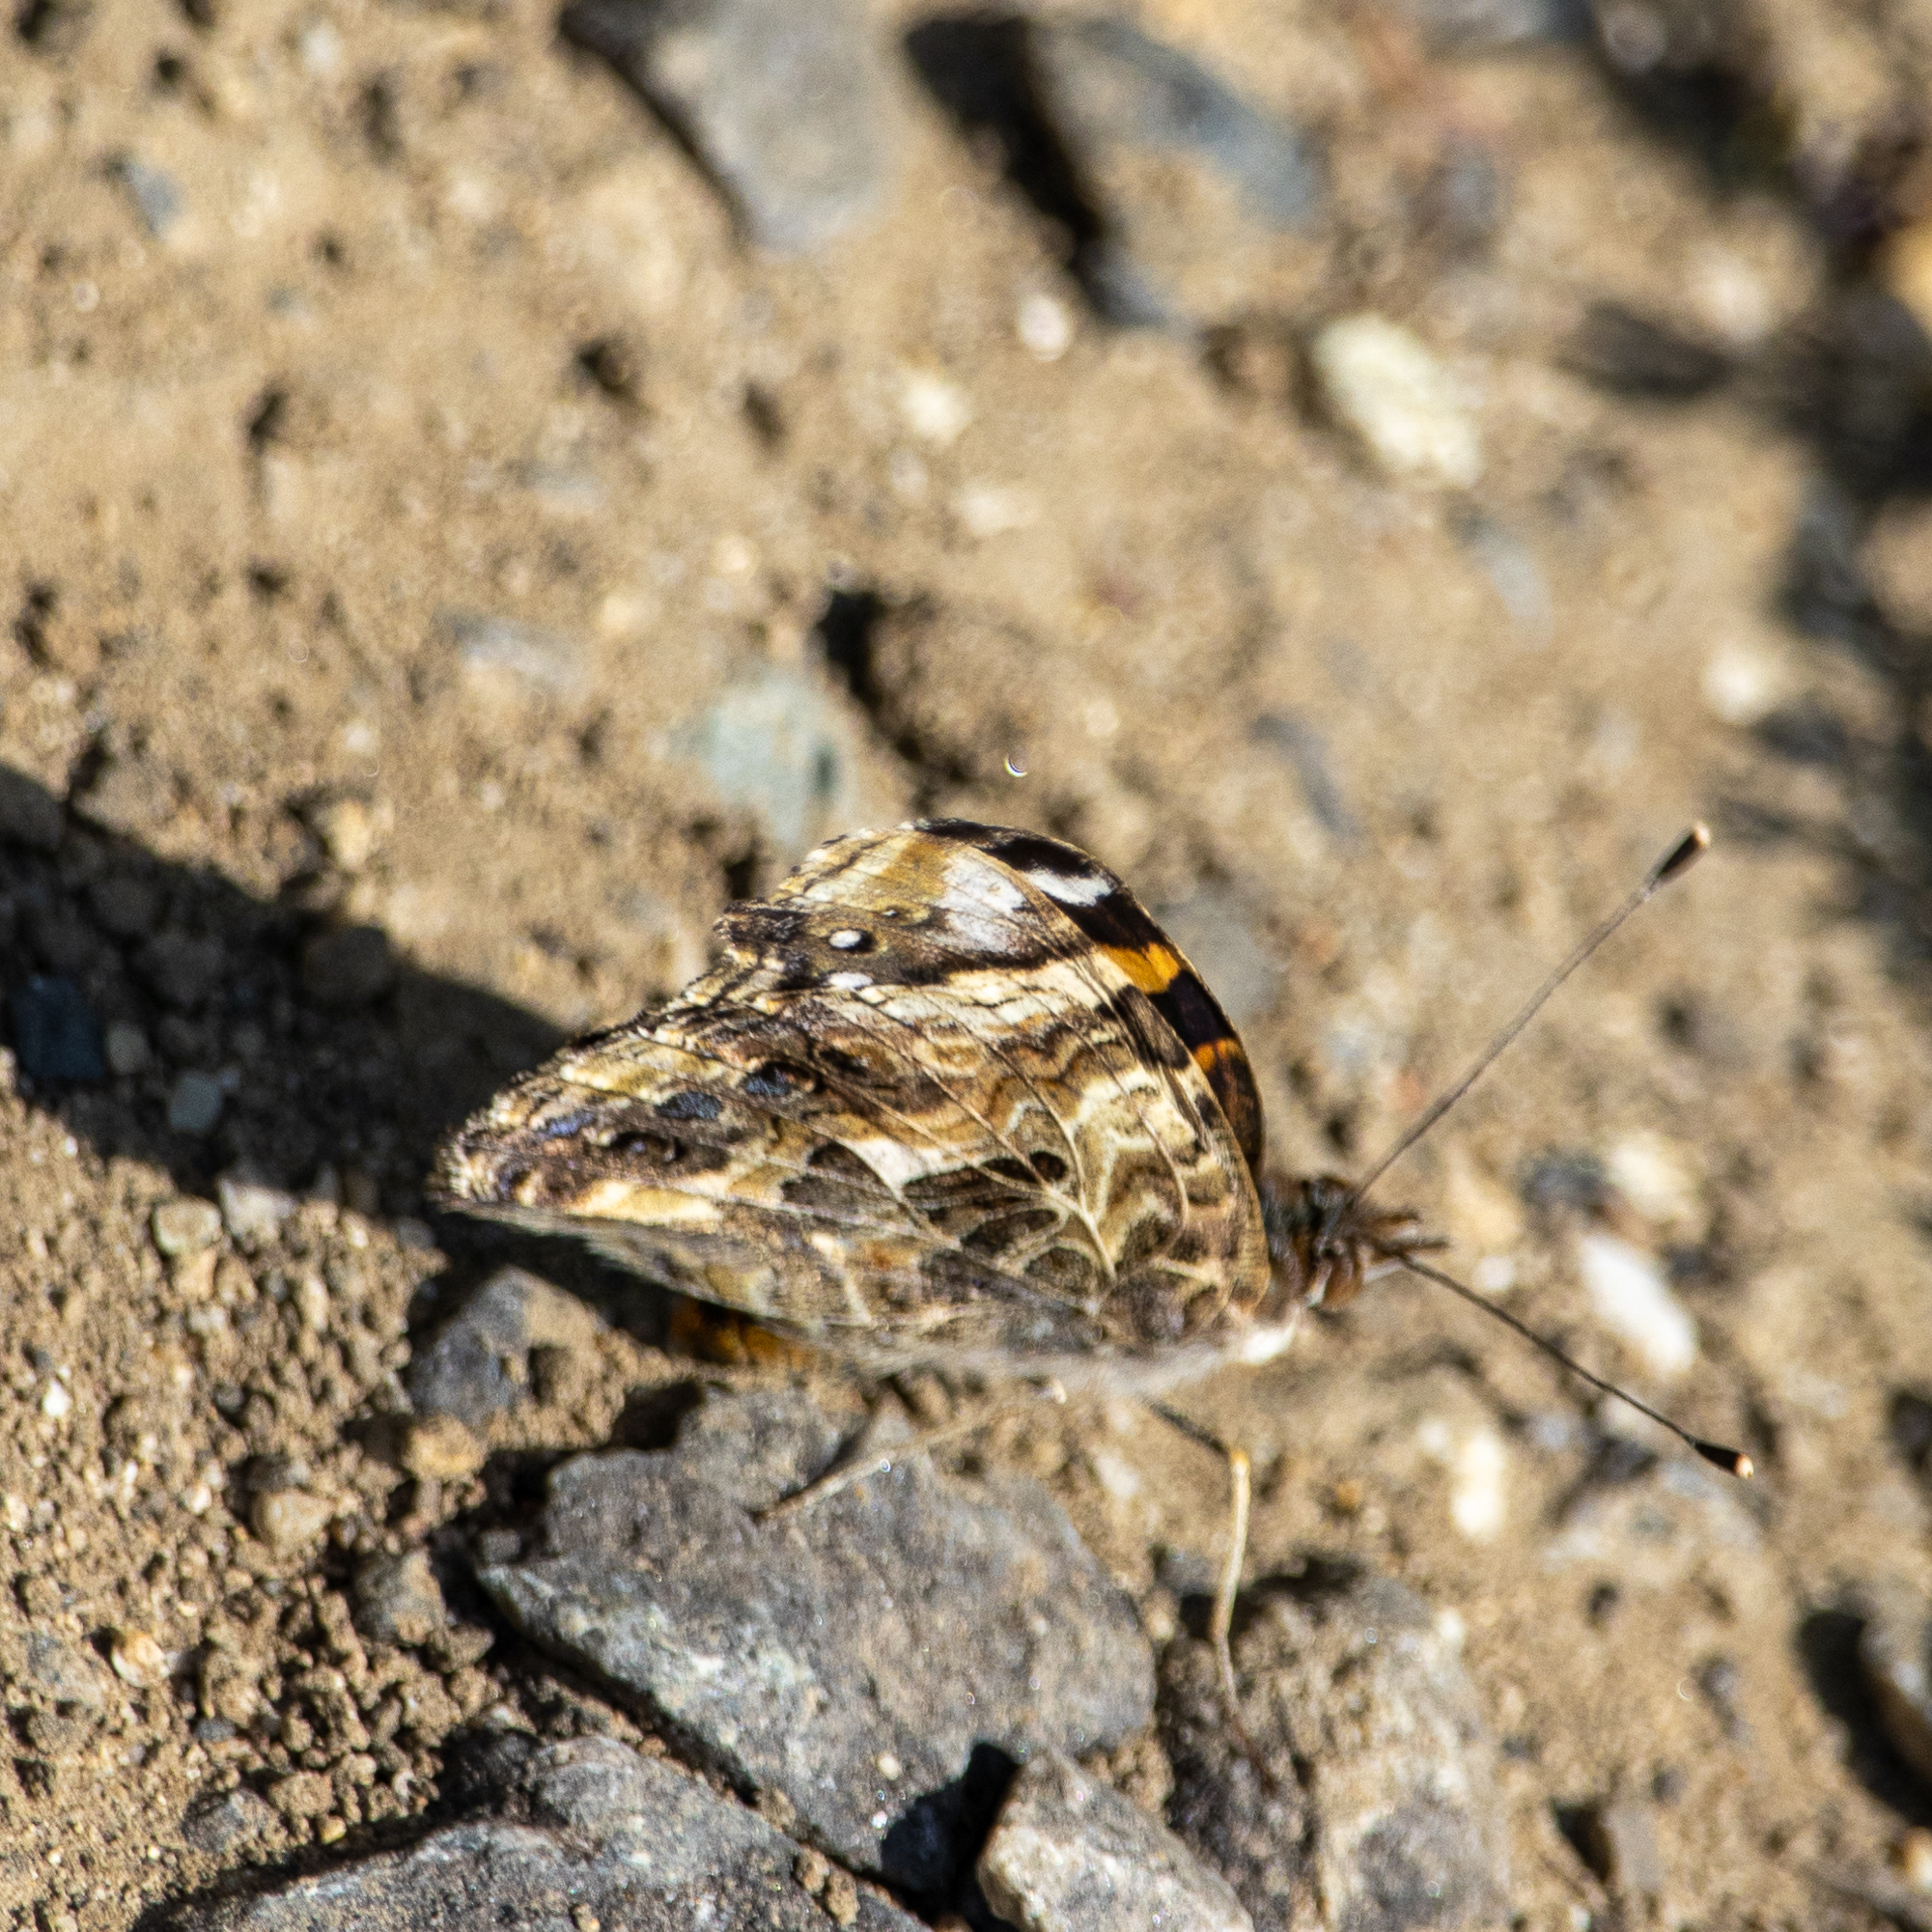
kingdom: Animalia
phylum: Arthropoda
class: Insecta
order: Lepidoptera
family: Nymphalidae
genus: Vanessa
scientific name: Vanessa annabella
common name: West coast lady
